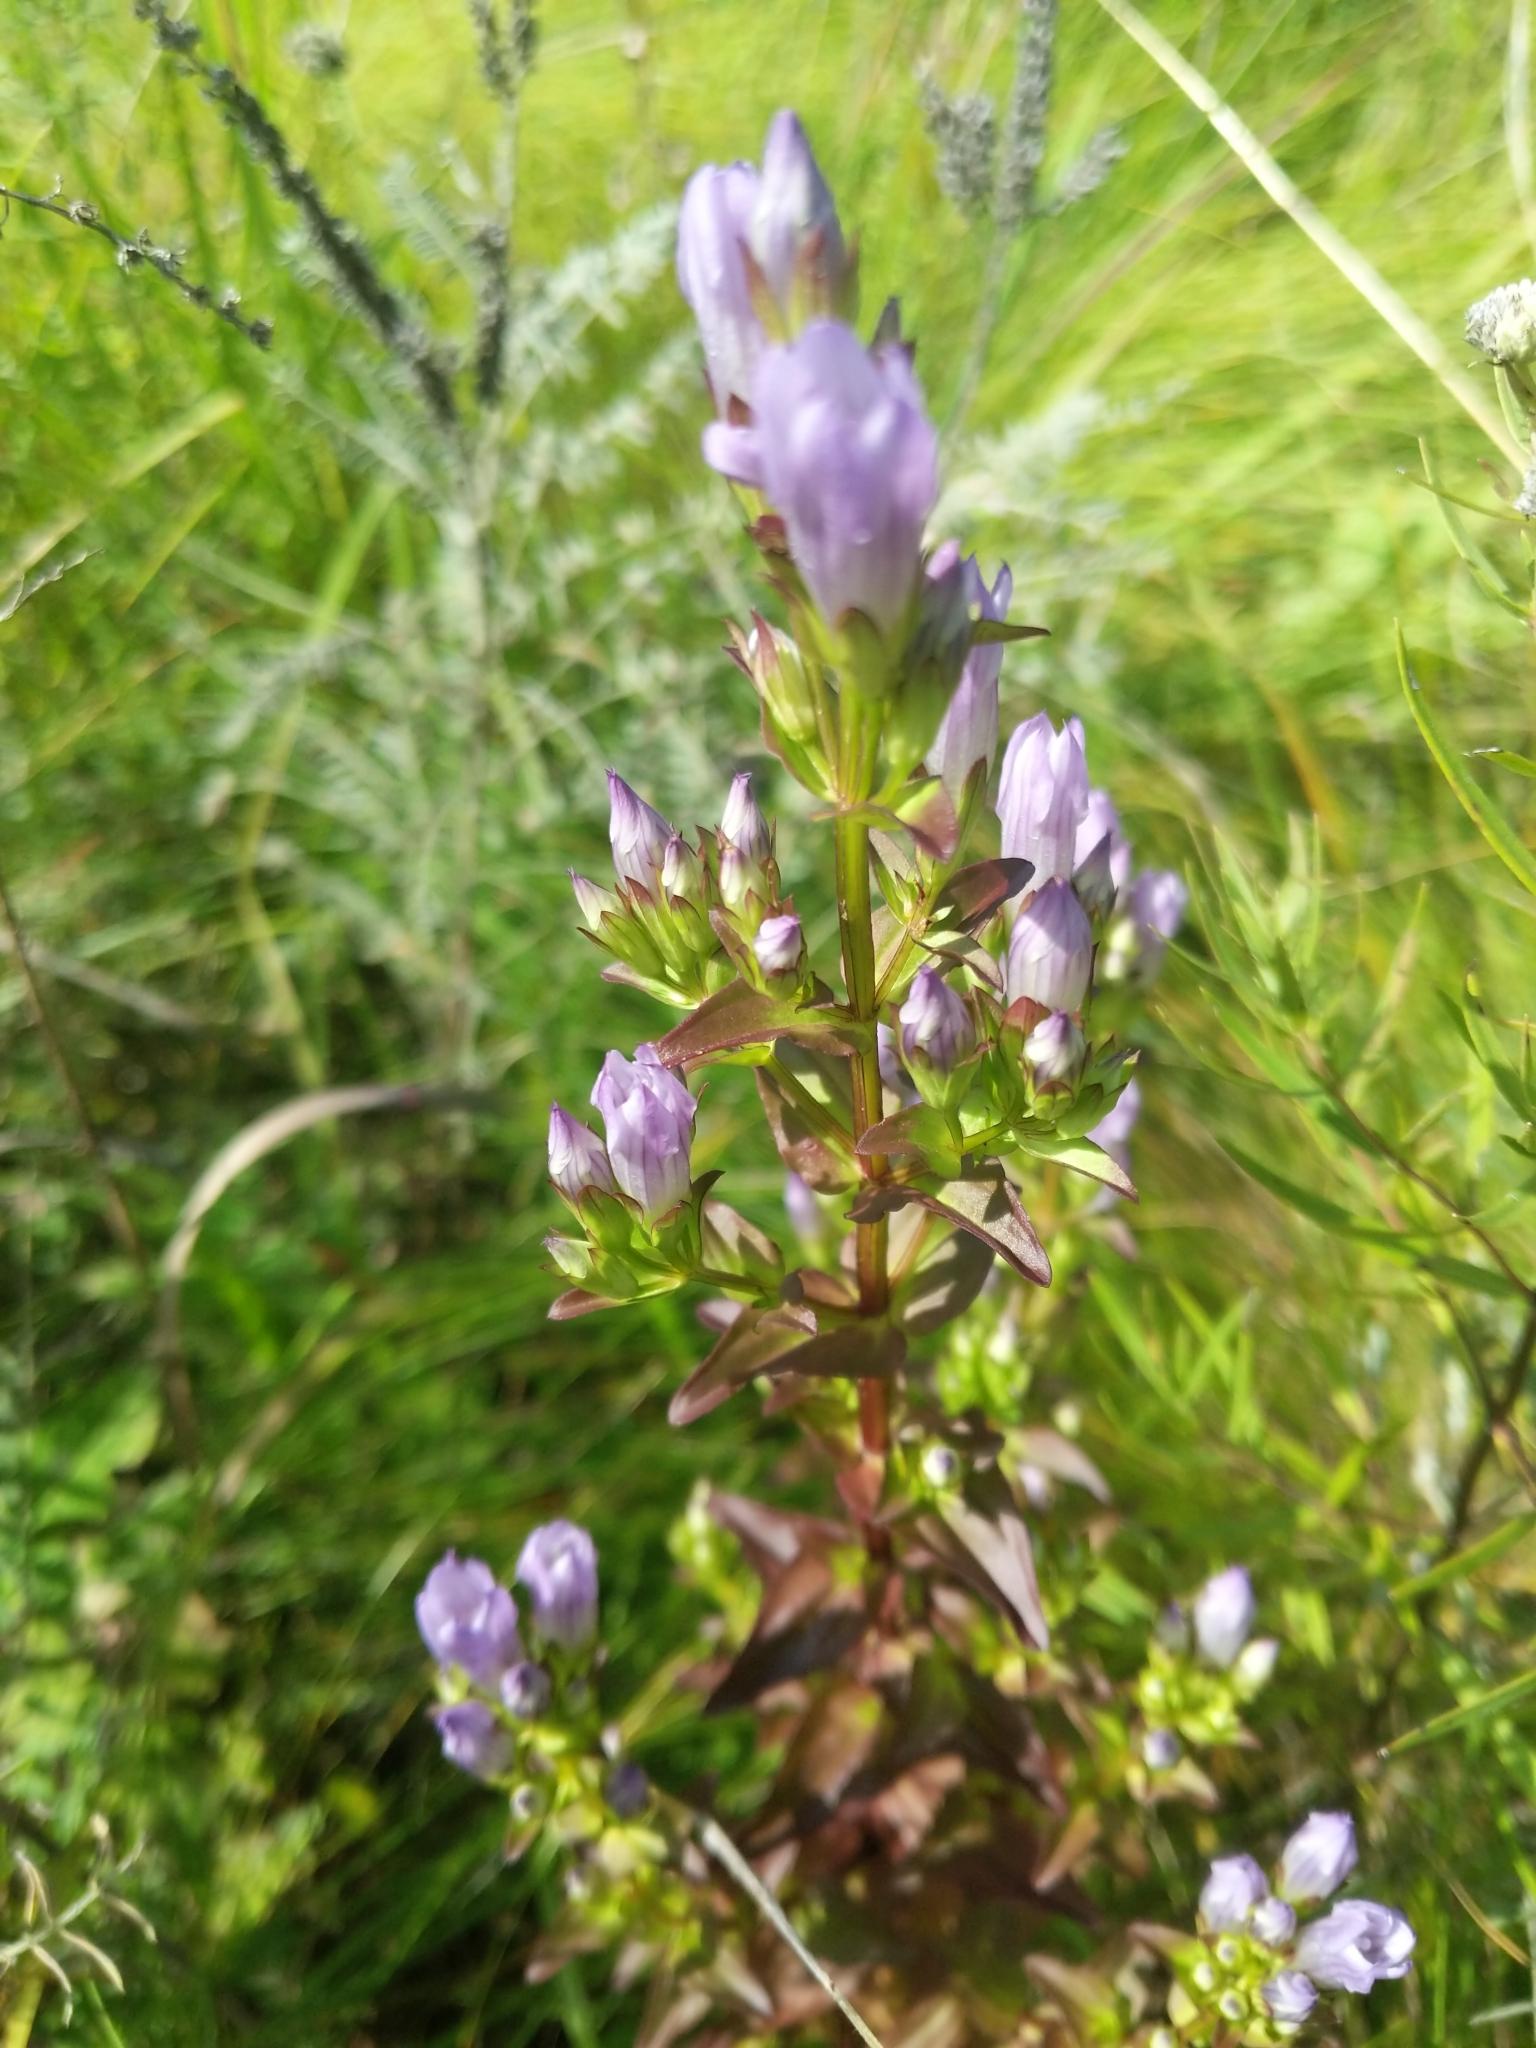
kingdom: Plantae
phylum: Tracheophyta
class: Magnoliopsida
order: Gentianales
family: Gentianaceae
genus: Gentianella
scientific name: Gentianella quinquefolia
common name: Agueweed
